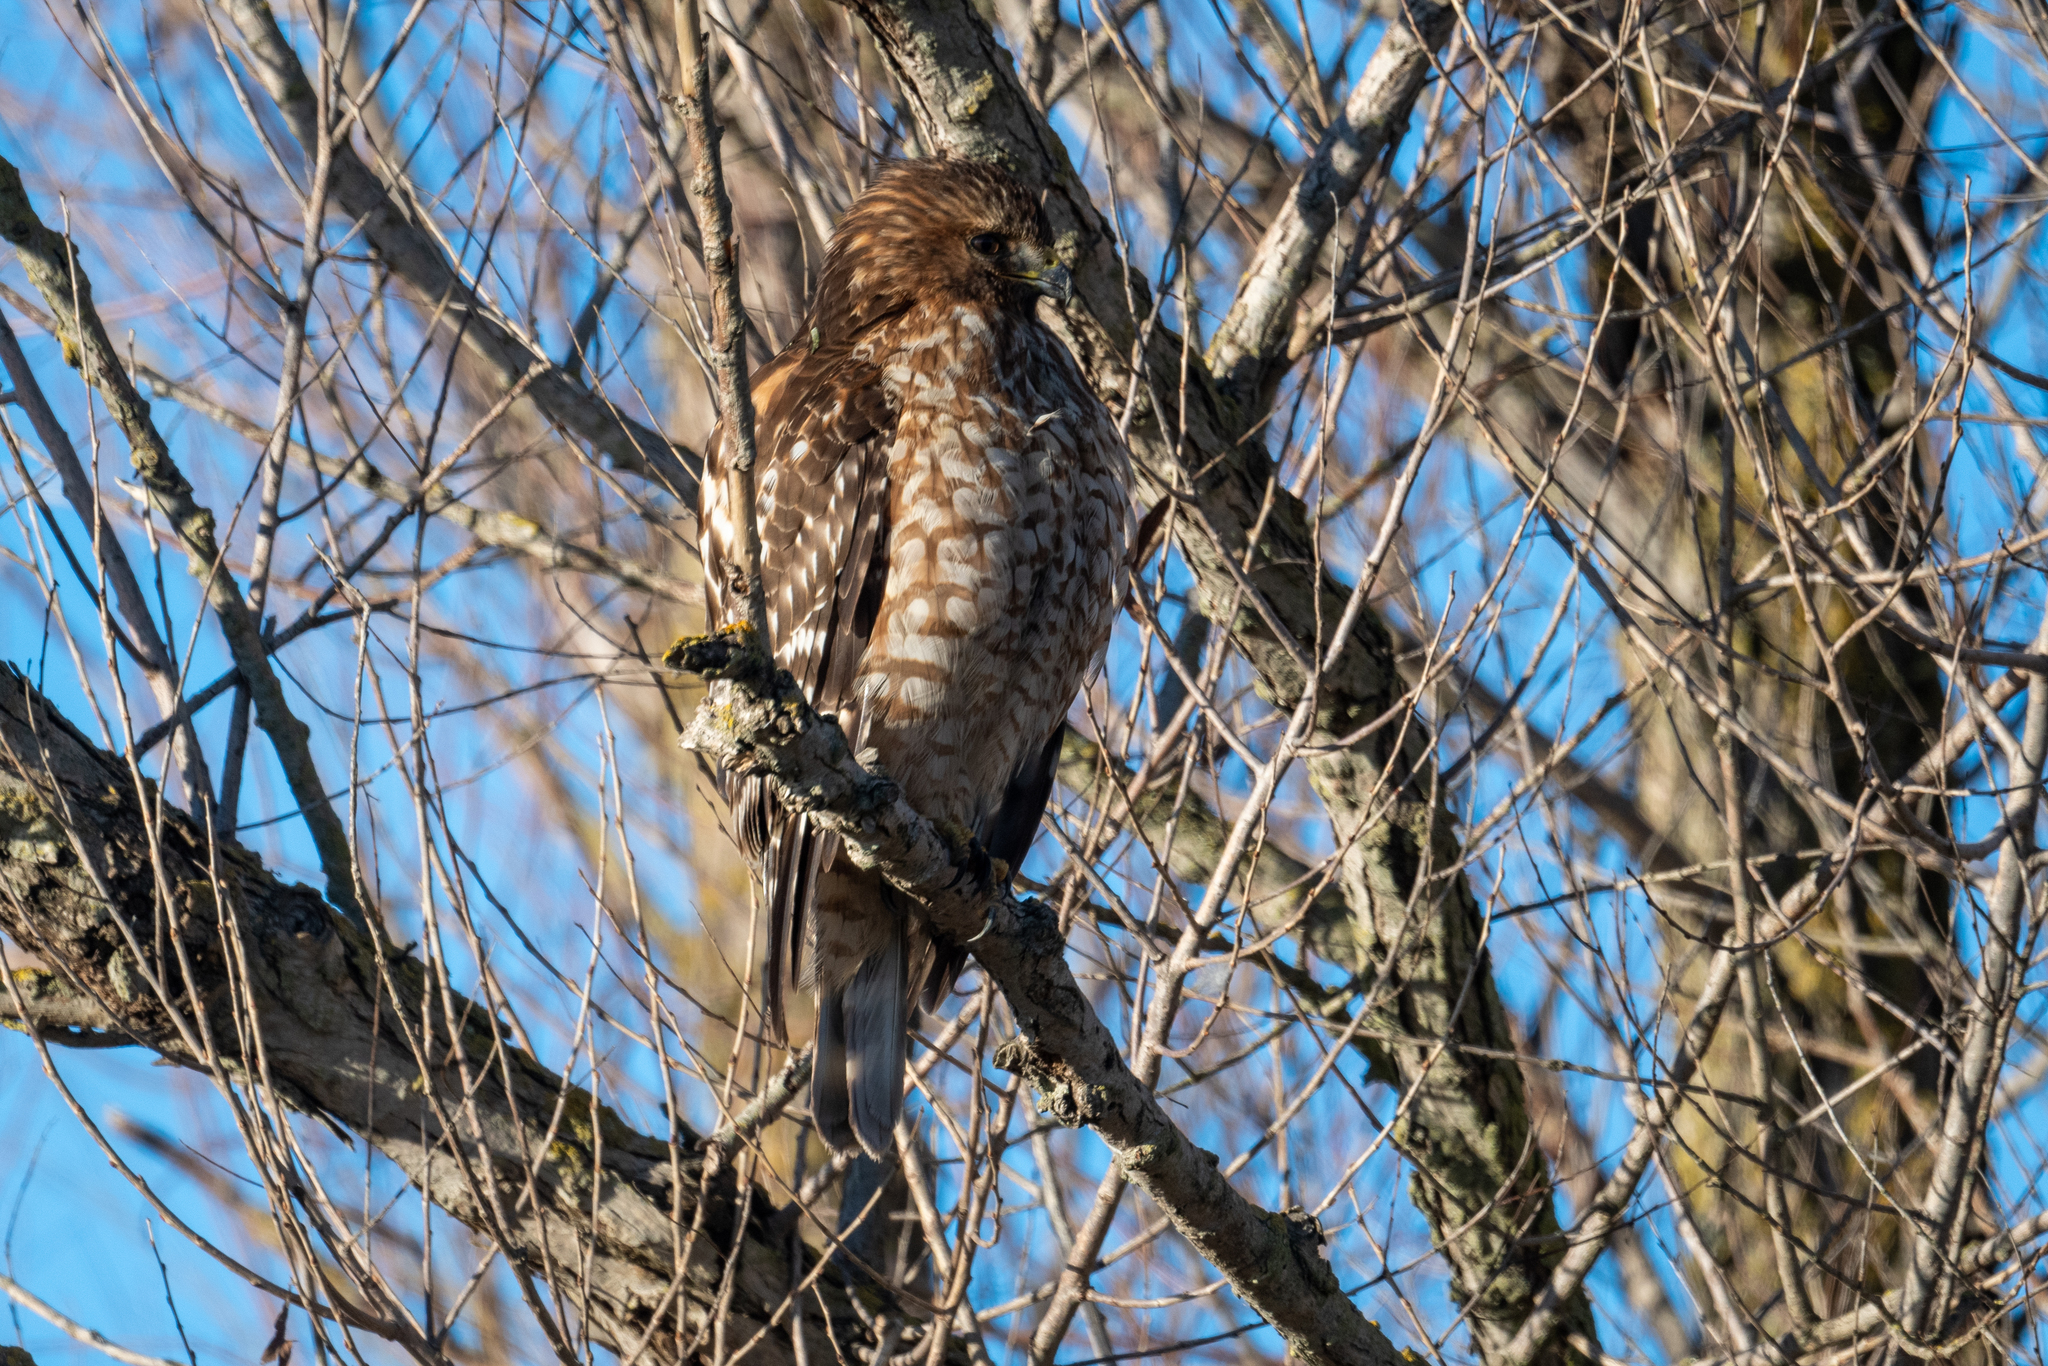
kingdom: Animalia
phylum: Chordata
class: Aves
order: Accipitriformes
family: Accipitridae
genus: Buteo
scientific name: Buteo lineatus
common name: Red-shouldered hawk
